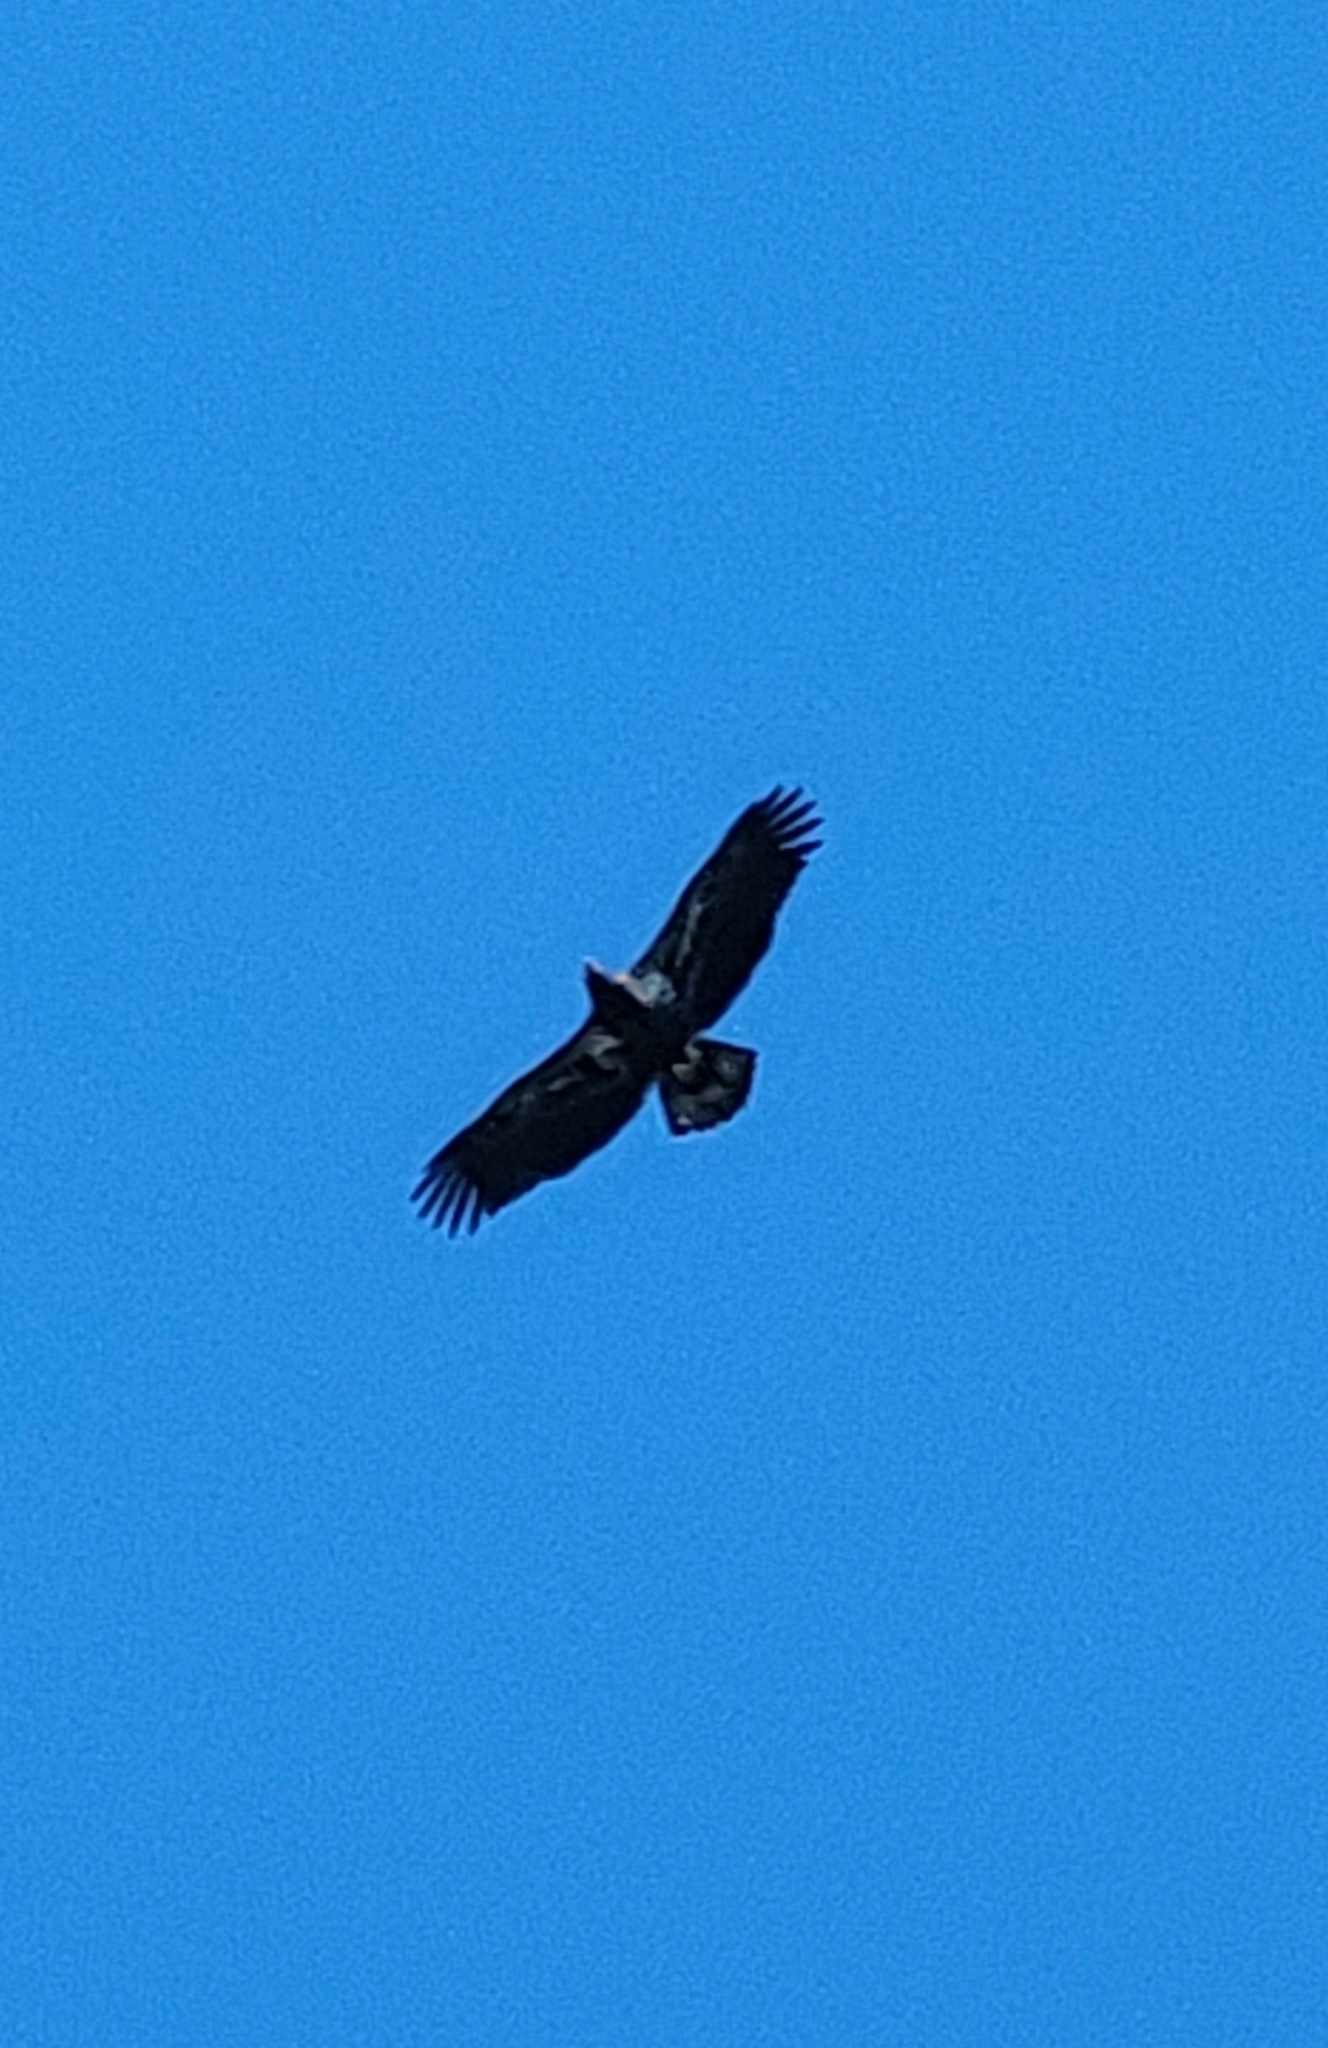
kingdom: Animalia
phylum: Chordata
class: Aves
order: Accipitriformes
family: Accipitridae
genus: Haliaeetus
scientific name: Haliaeetus leucocephalus
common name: Bald eagle
